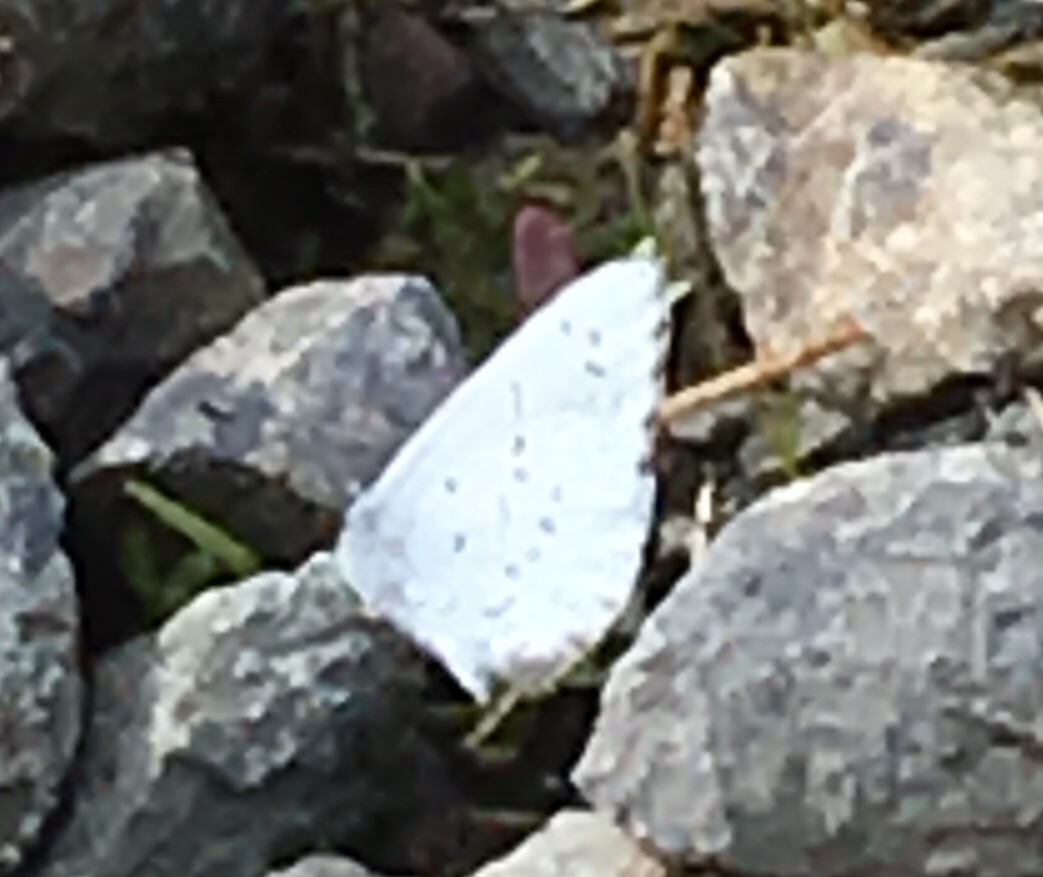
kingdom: Animalia
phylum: Arthropoda
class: Insecta
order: Lepidoptera
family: Lycaenidae
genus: Celastrina
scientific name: Celastrina ladon
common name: Spring azure
